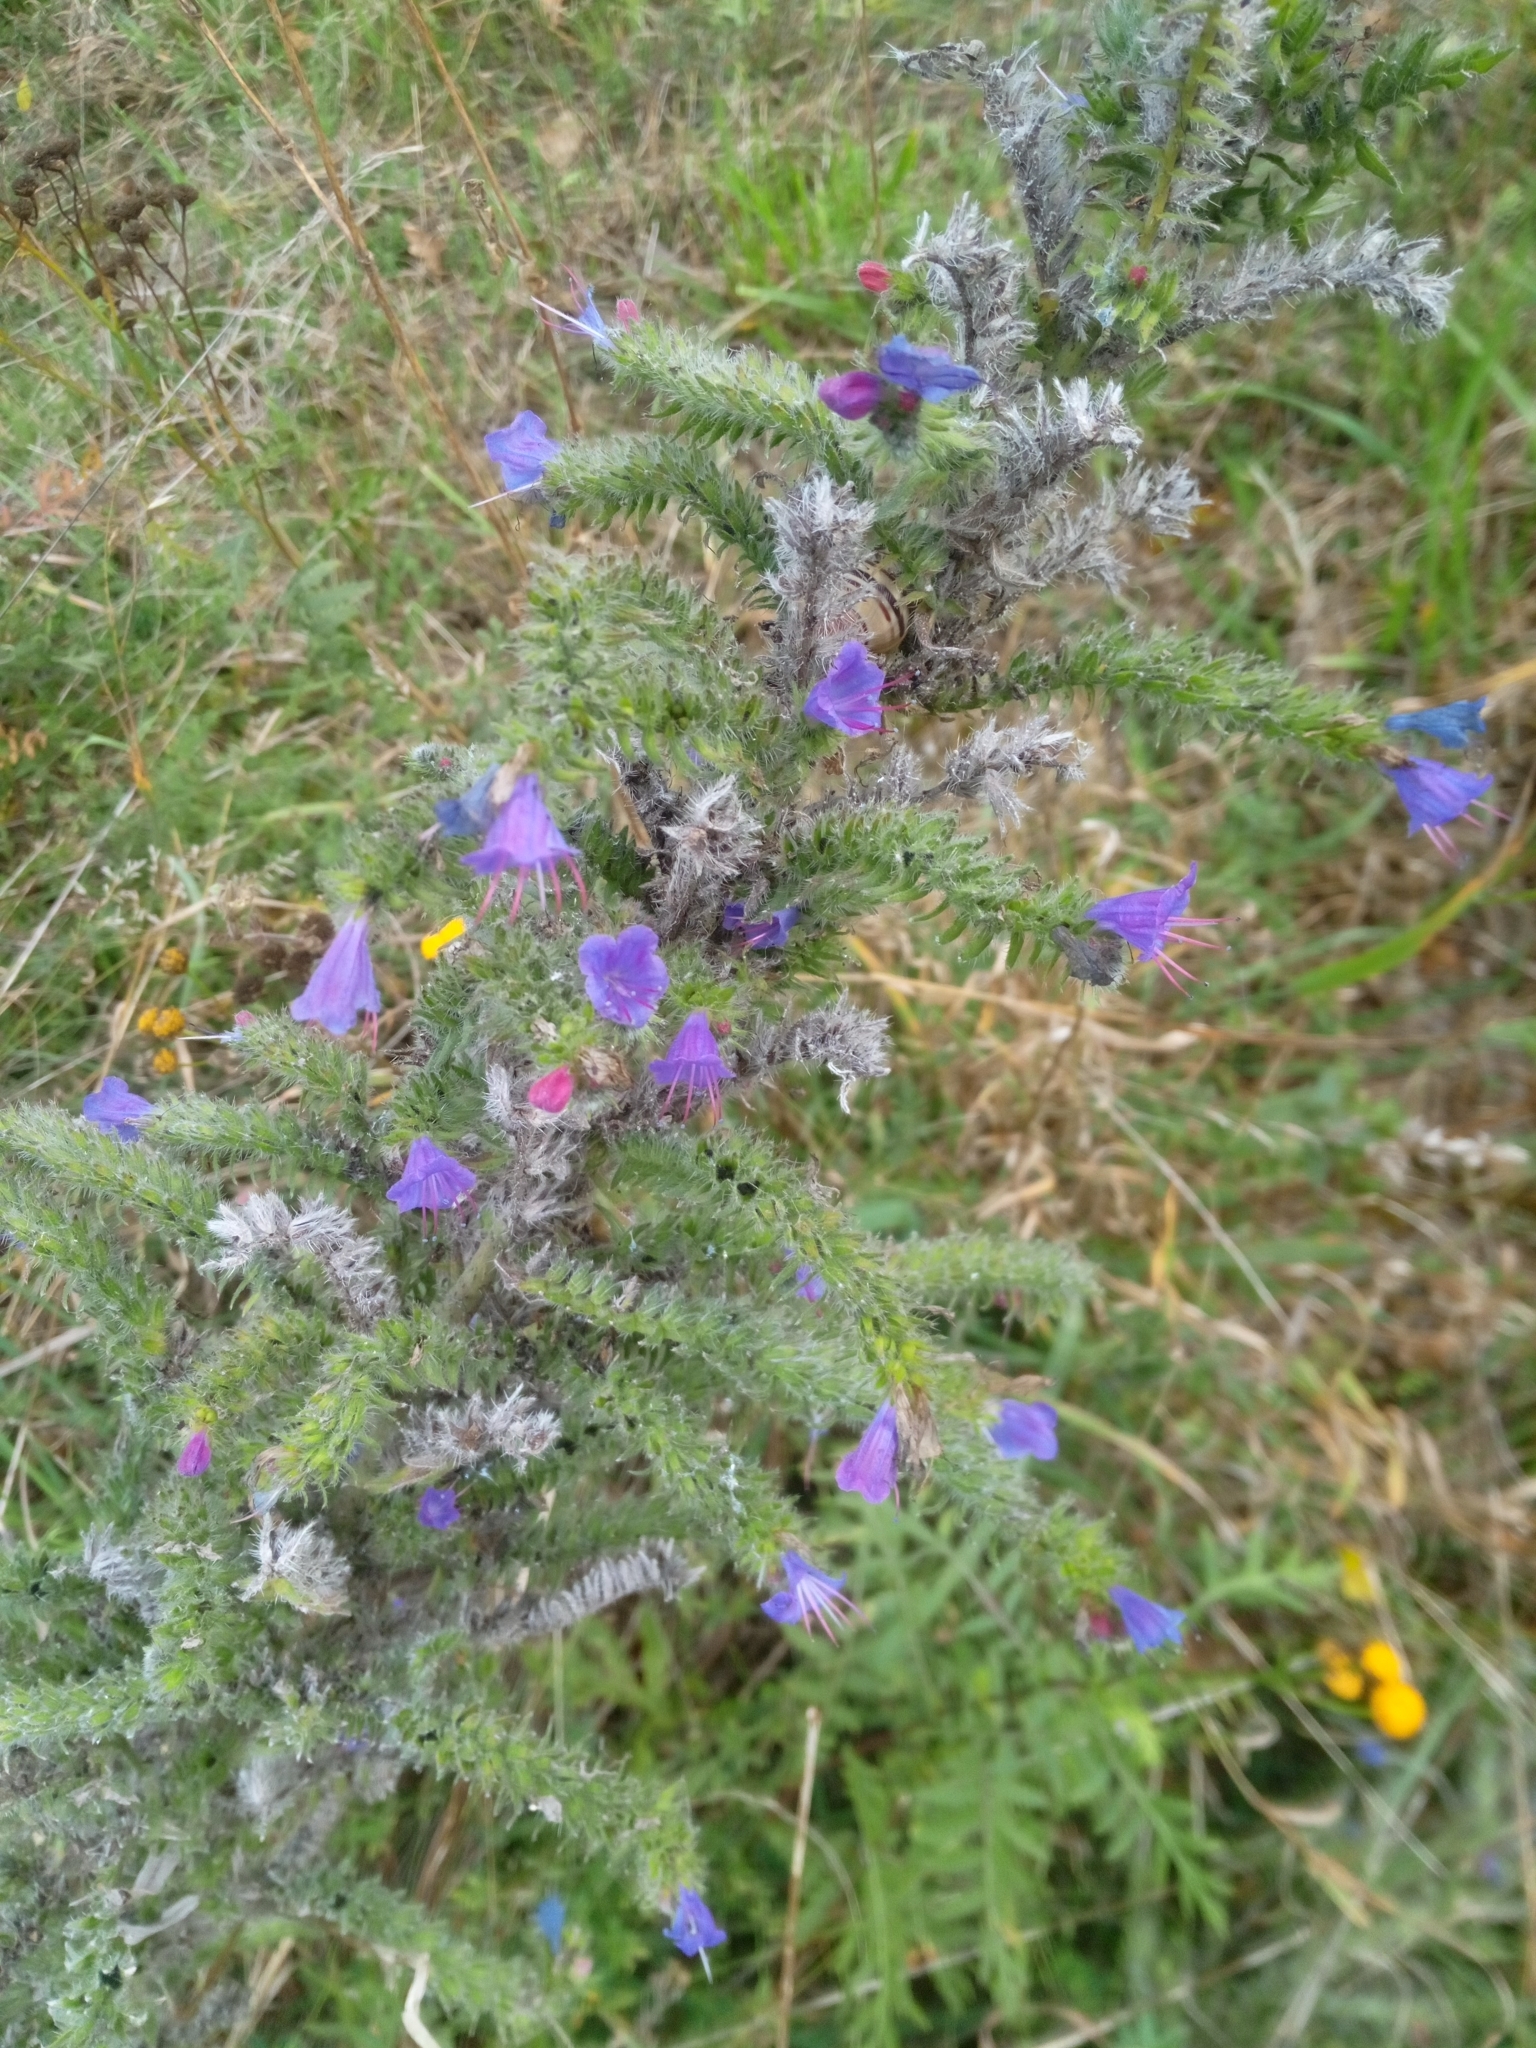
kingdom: Plantae
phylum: Tracheophyta
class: Magnoliopsida
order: Boraginales
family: Boraginaceae
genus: Echium
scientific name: Echium vulgare
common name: Common viper's bugloss
